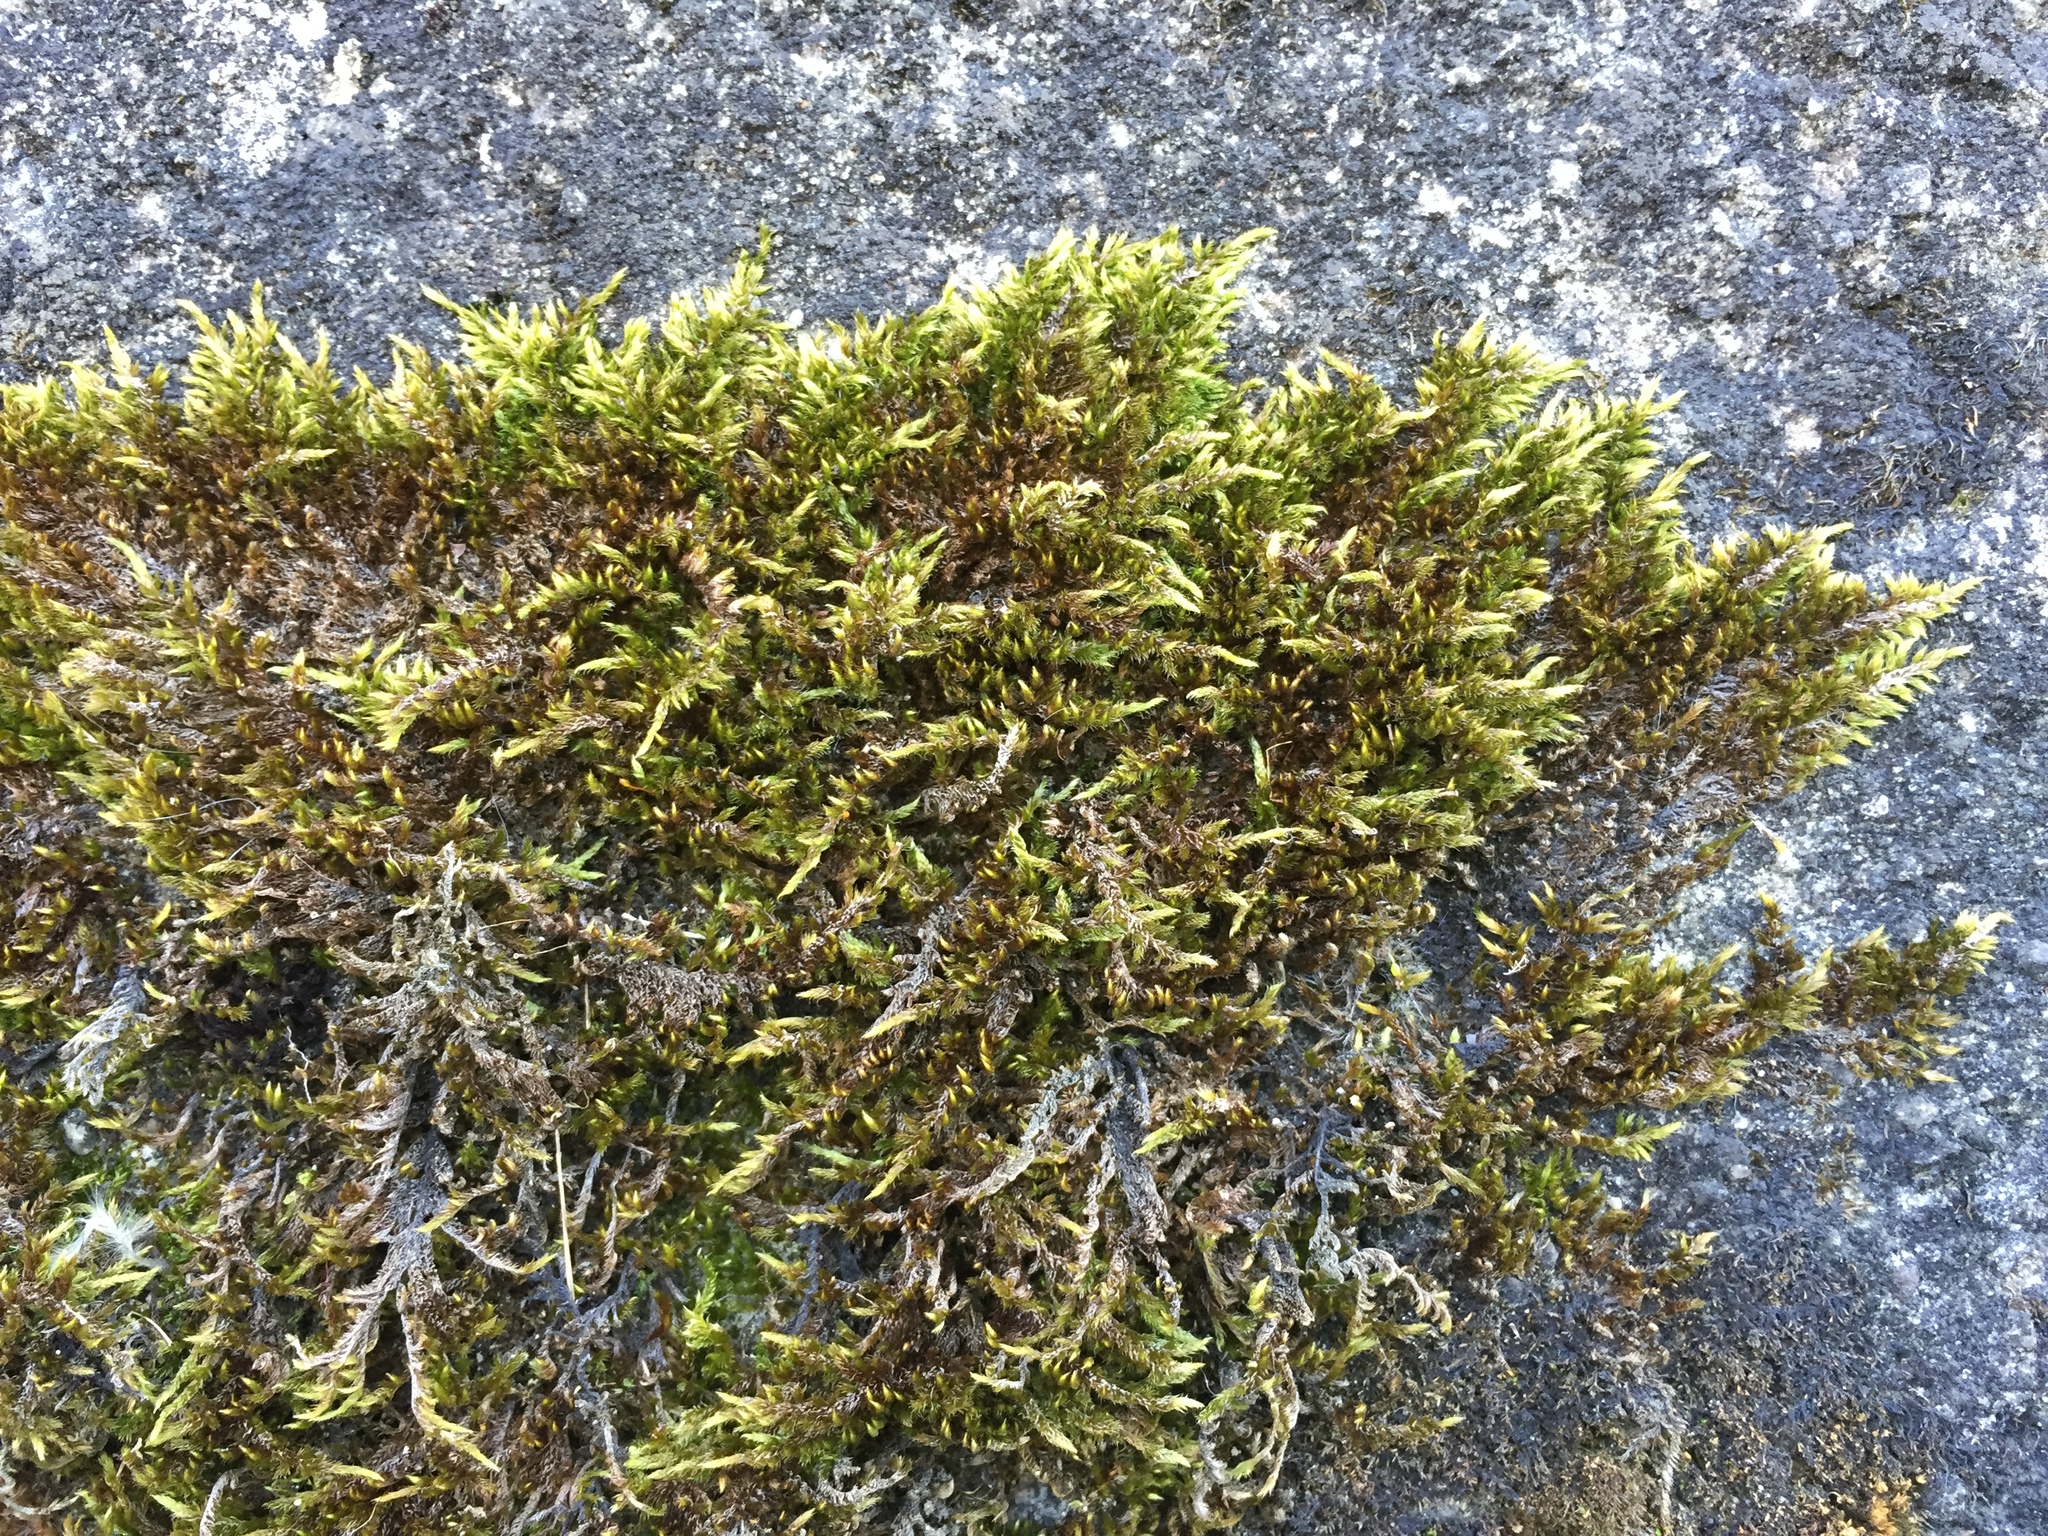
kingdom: Plantae
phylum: Bryophyta
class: Bryopsida
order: Hypnales
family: Brachytheciaceae
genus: Homalothecium
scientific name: Homalothecium sericeum
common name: Silky wall feather-moss
